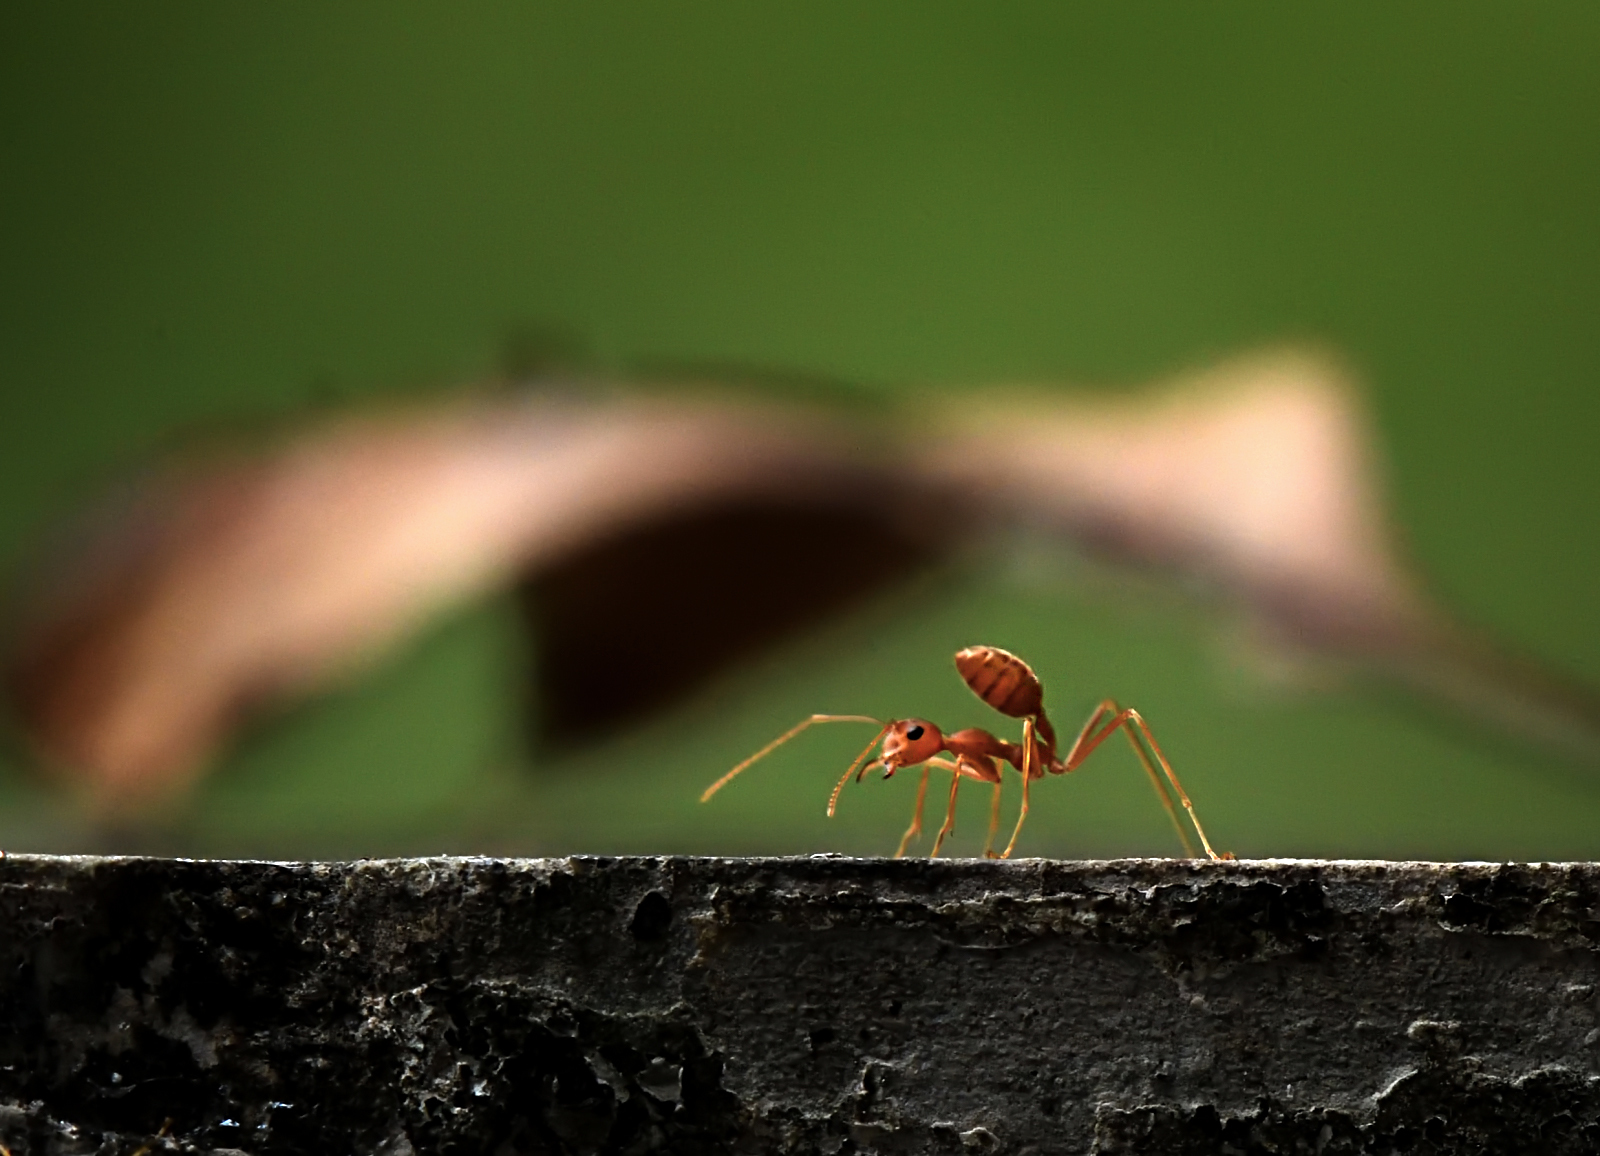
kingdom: Animalia
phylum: Arthropoda
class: Insecta
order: Hymenoptera
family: Formicidae
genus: Oecophylla
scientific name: Oecophylla smaragdina
